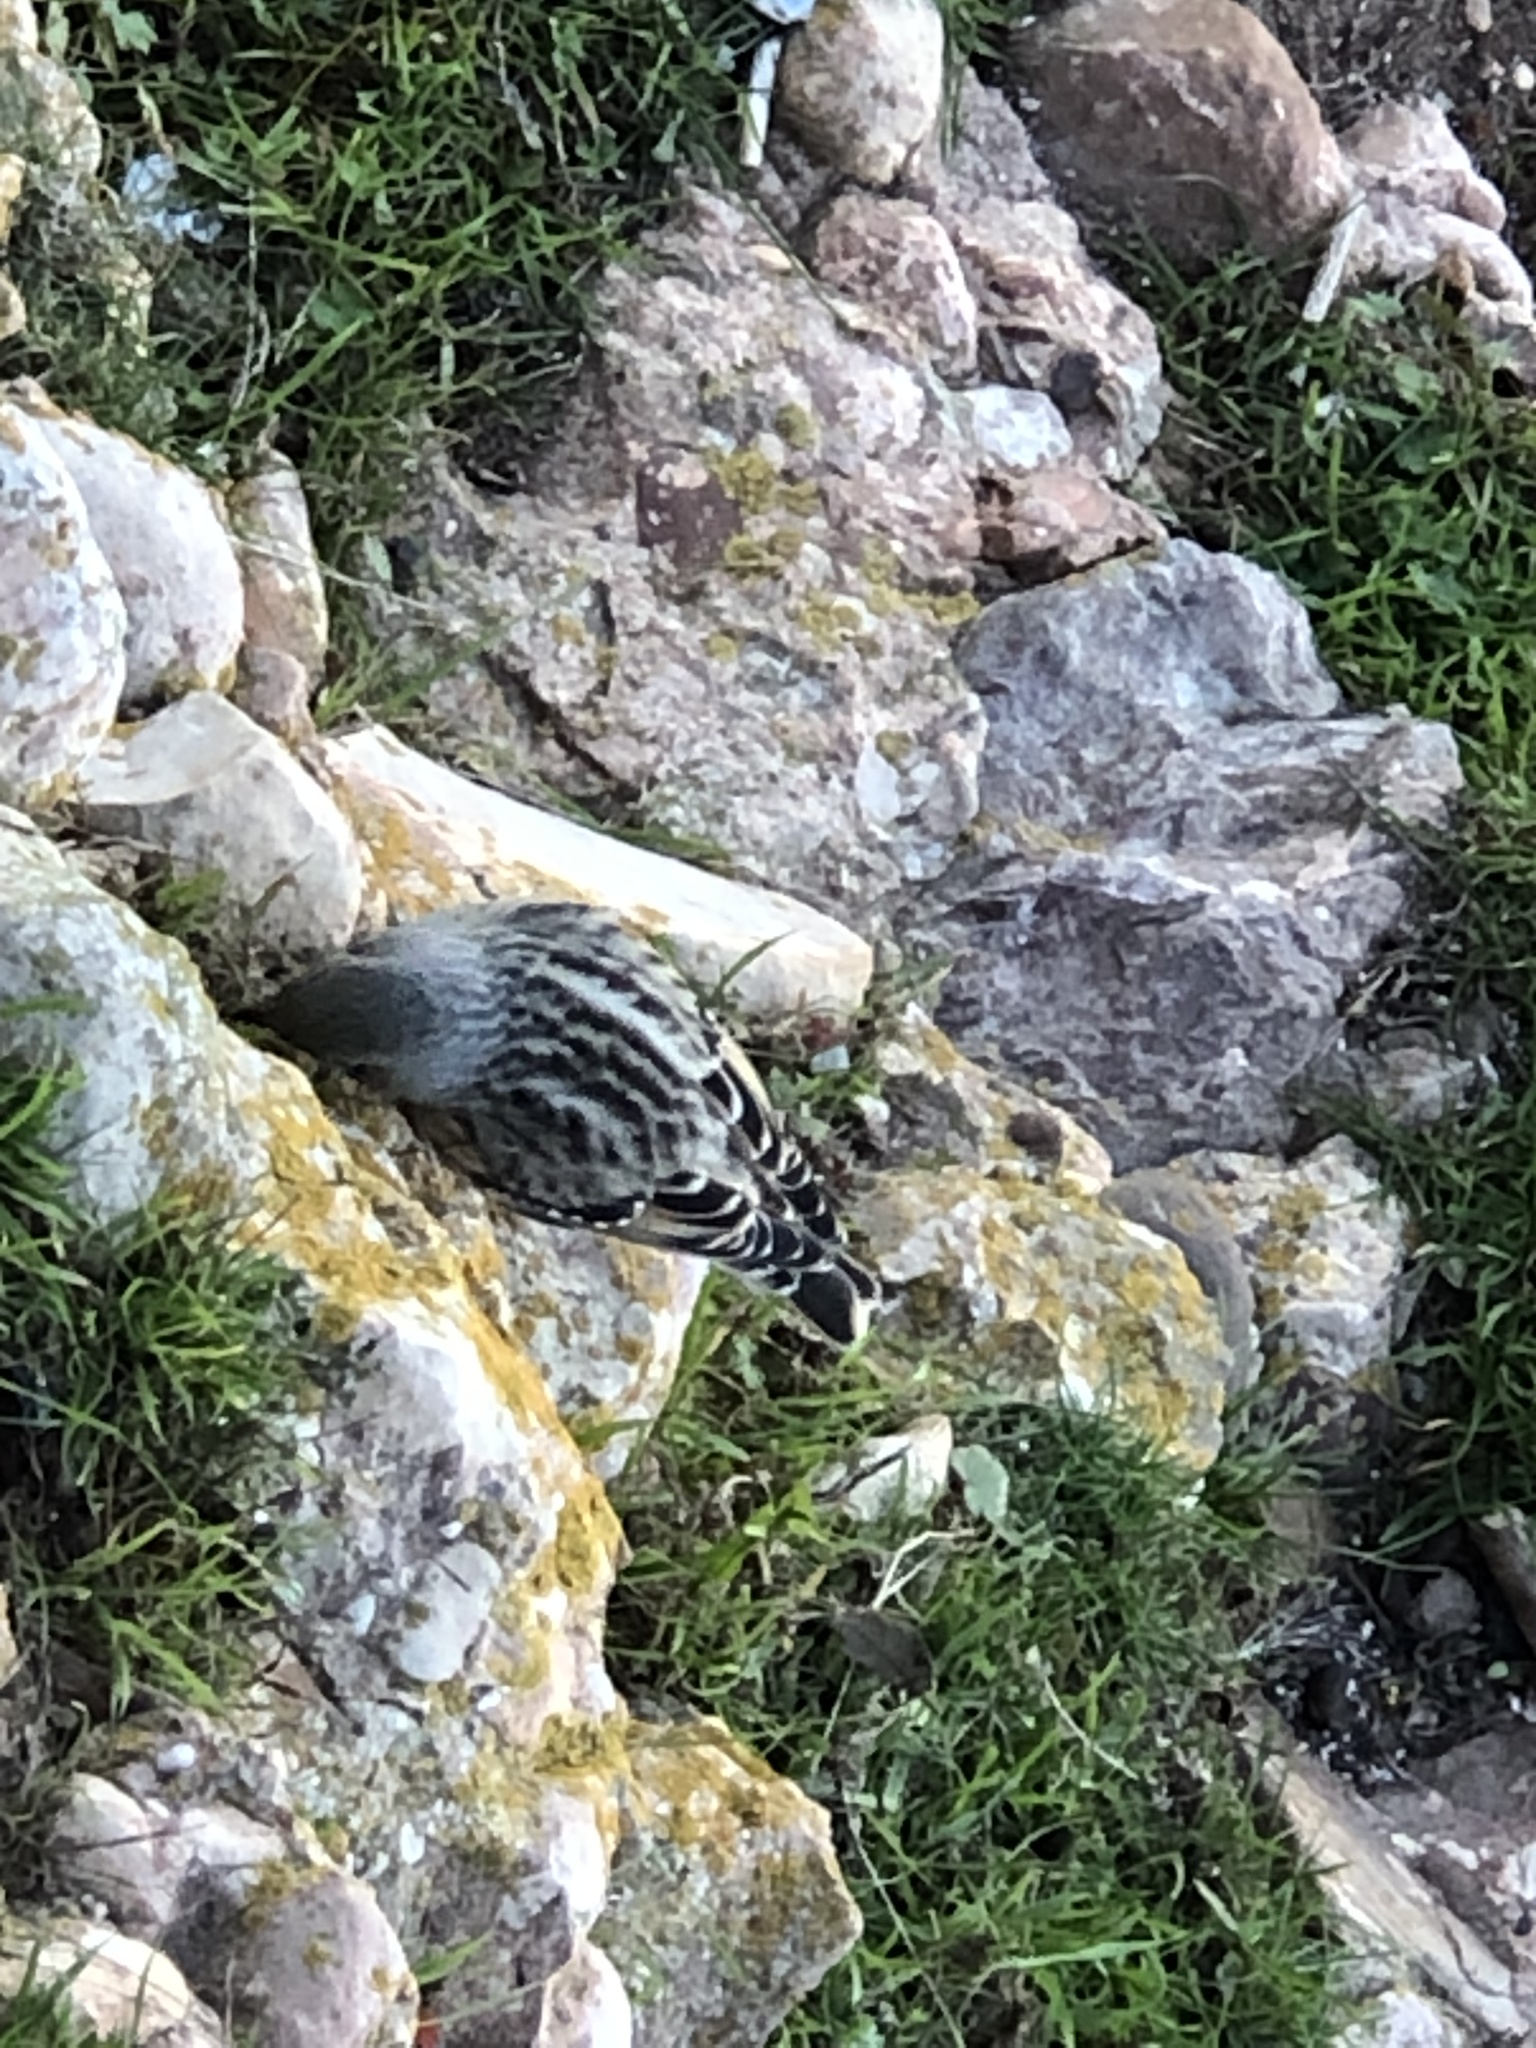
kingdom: Animalia
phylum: Chordata
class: Aves
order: Passeriformes
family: Prunellidae
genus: Prunella
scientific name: Prunella collaris
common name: Alpine accentor
